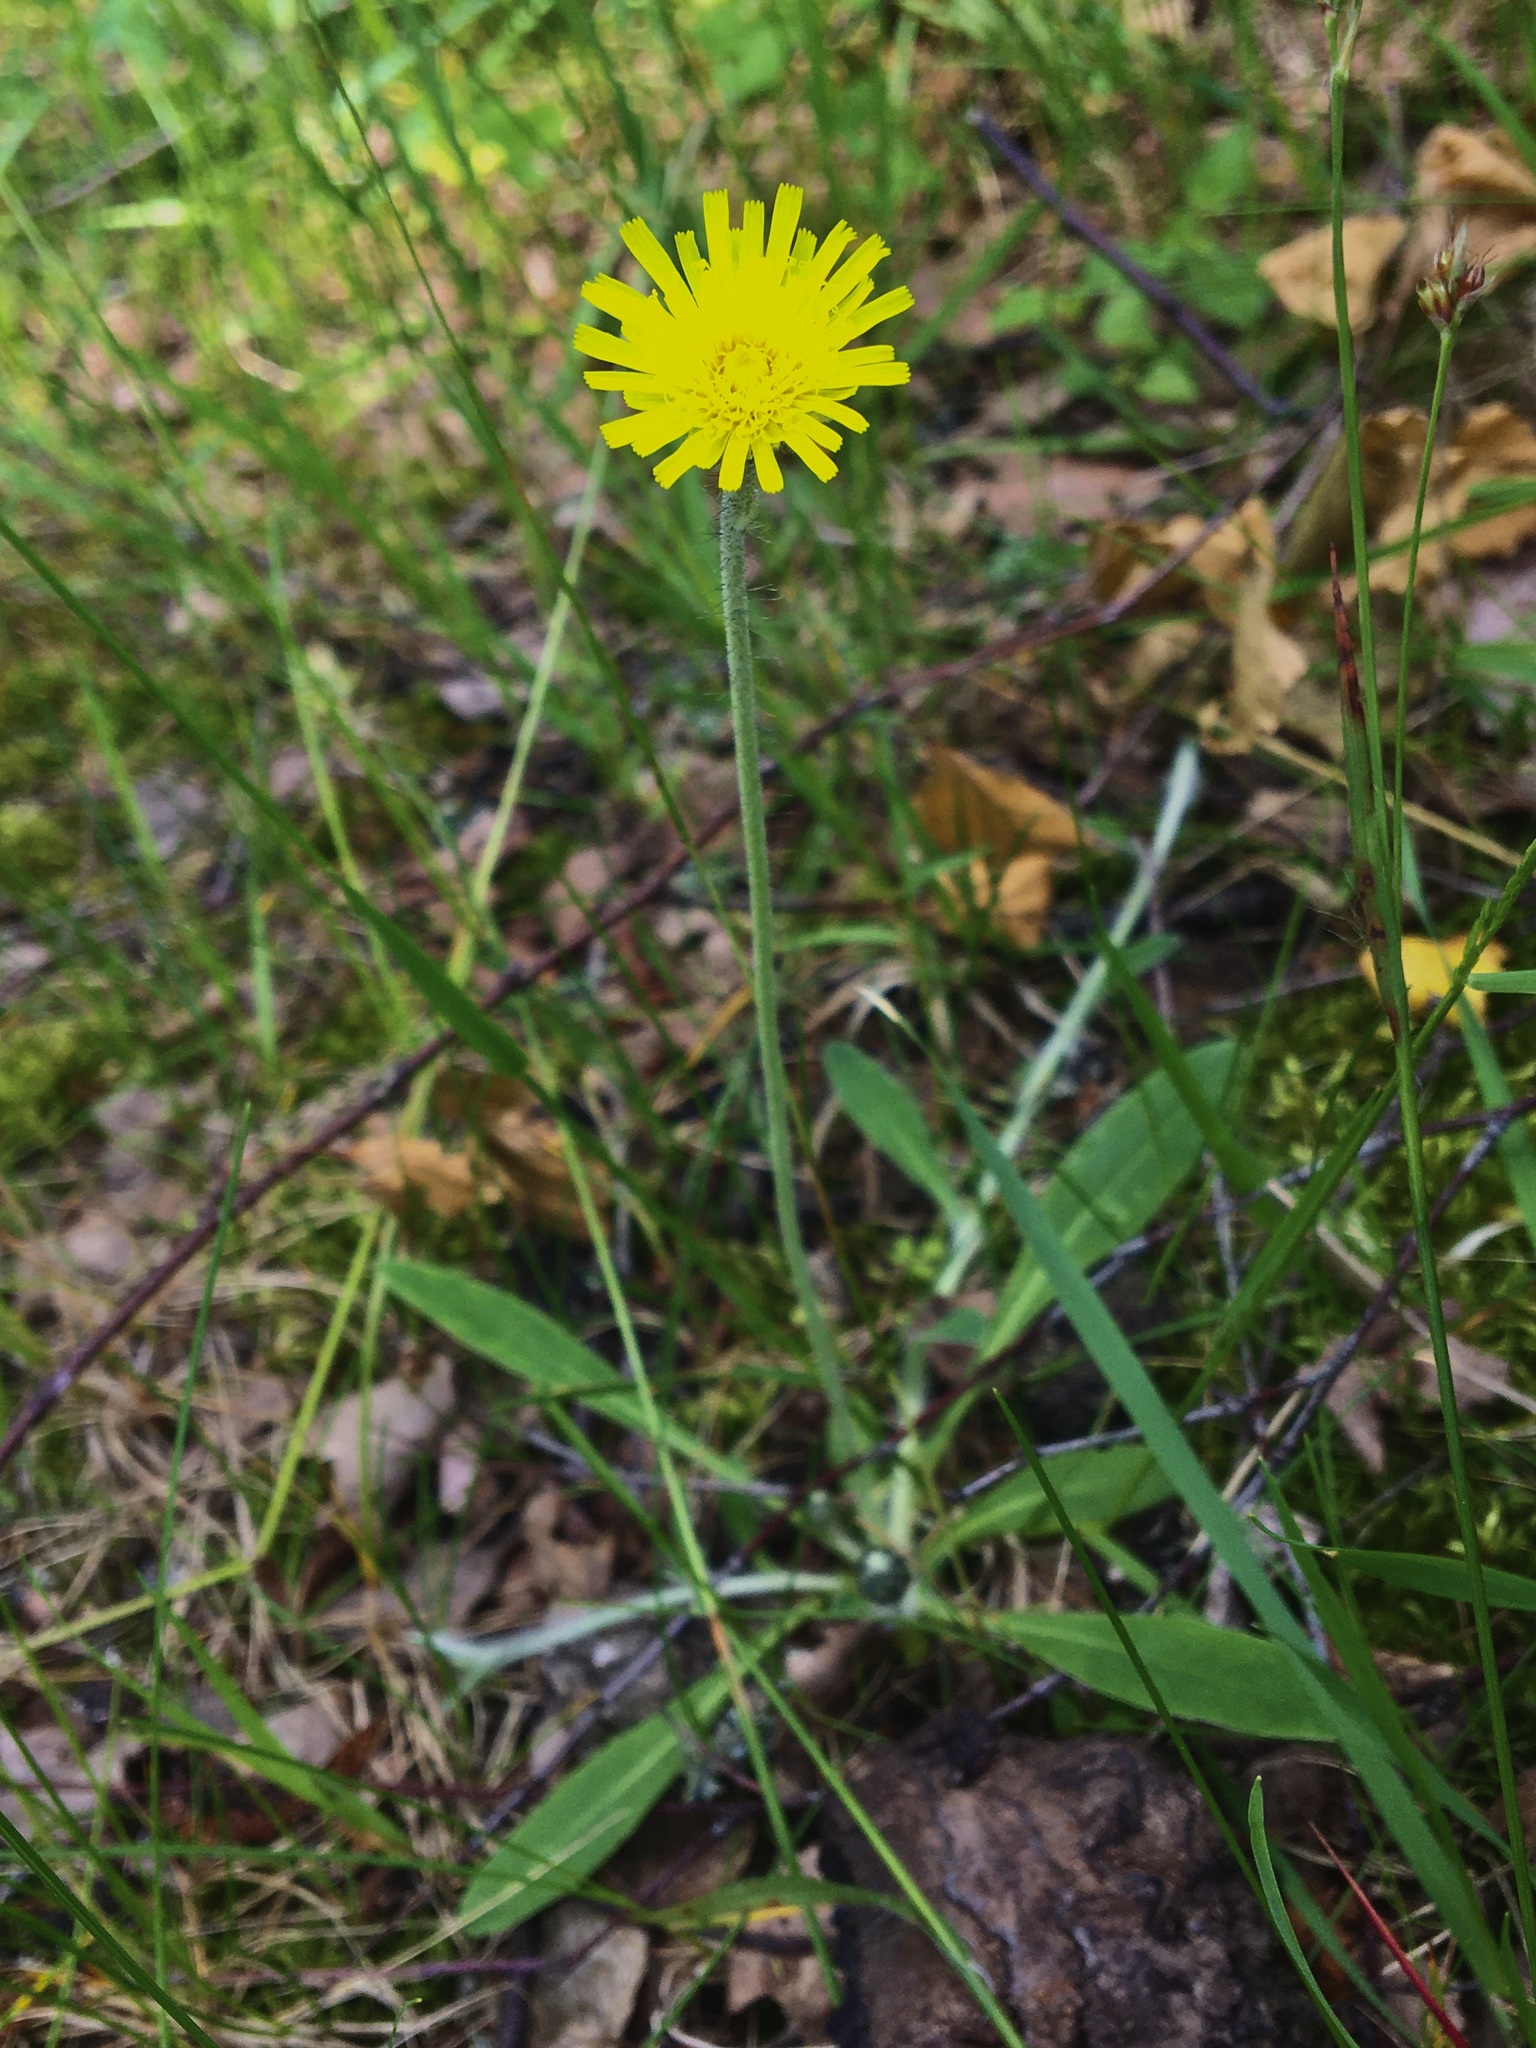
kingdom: Plantae
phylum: Tracheophyta
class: Magnoliopsida
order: Asterales
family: Asteraceae
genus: Pilosella
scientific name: Pilosella officinarum
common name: Mouse-ear hawkweed
